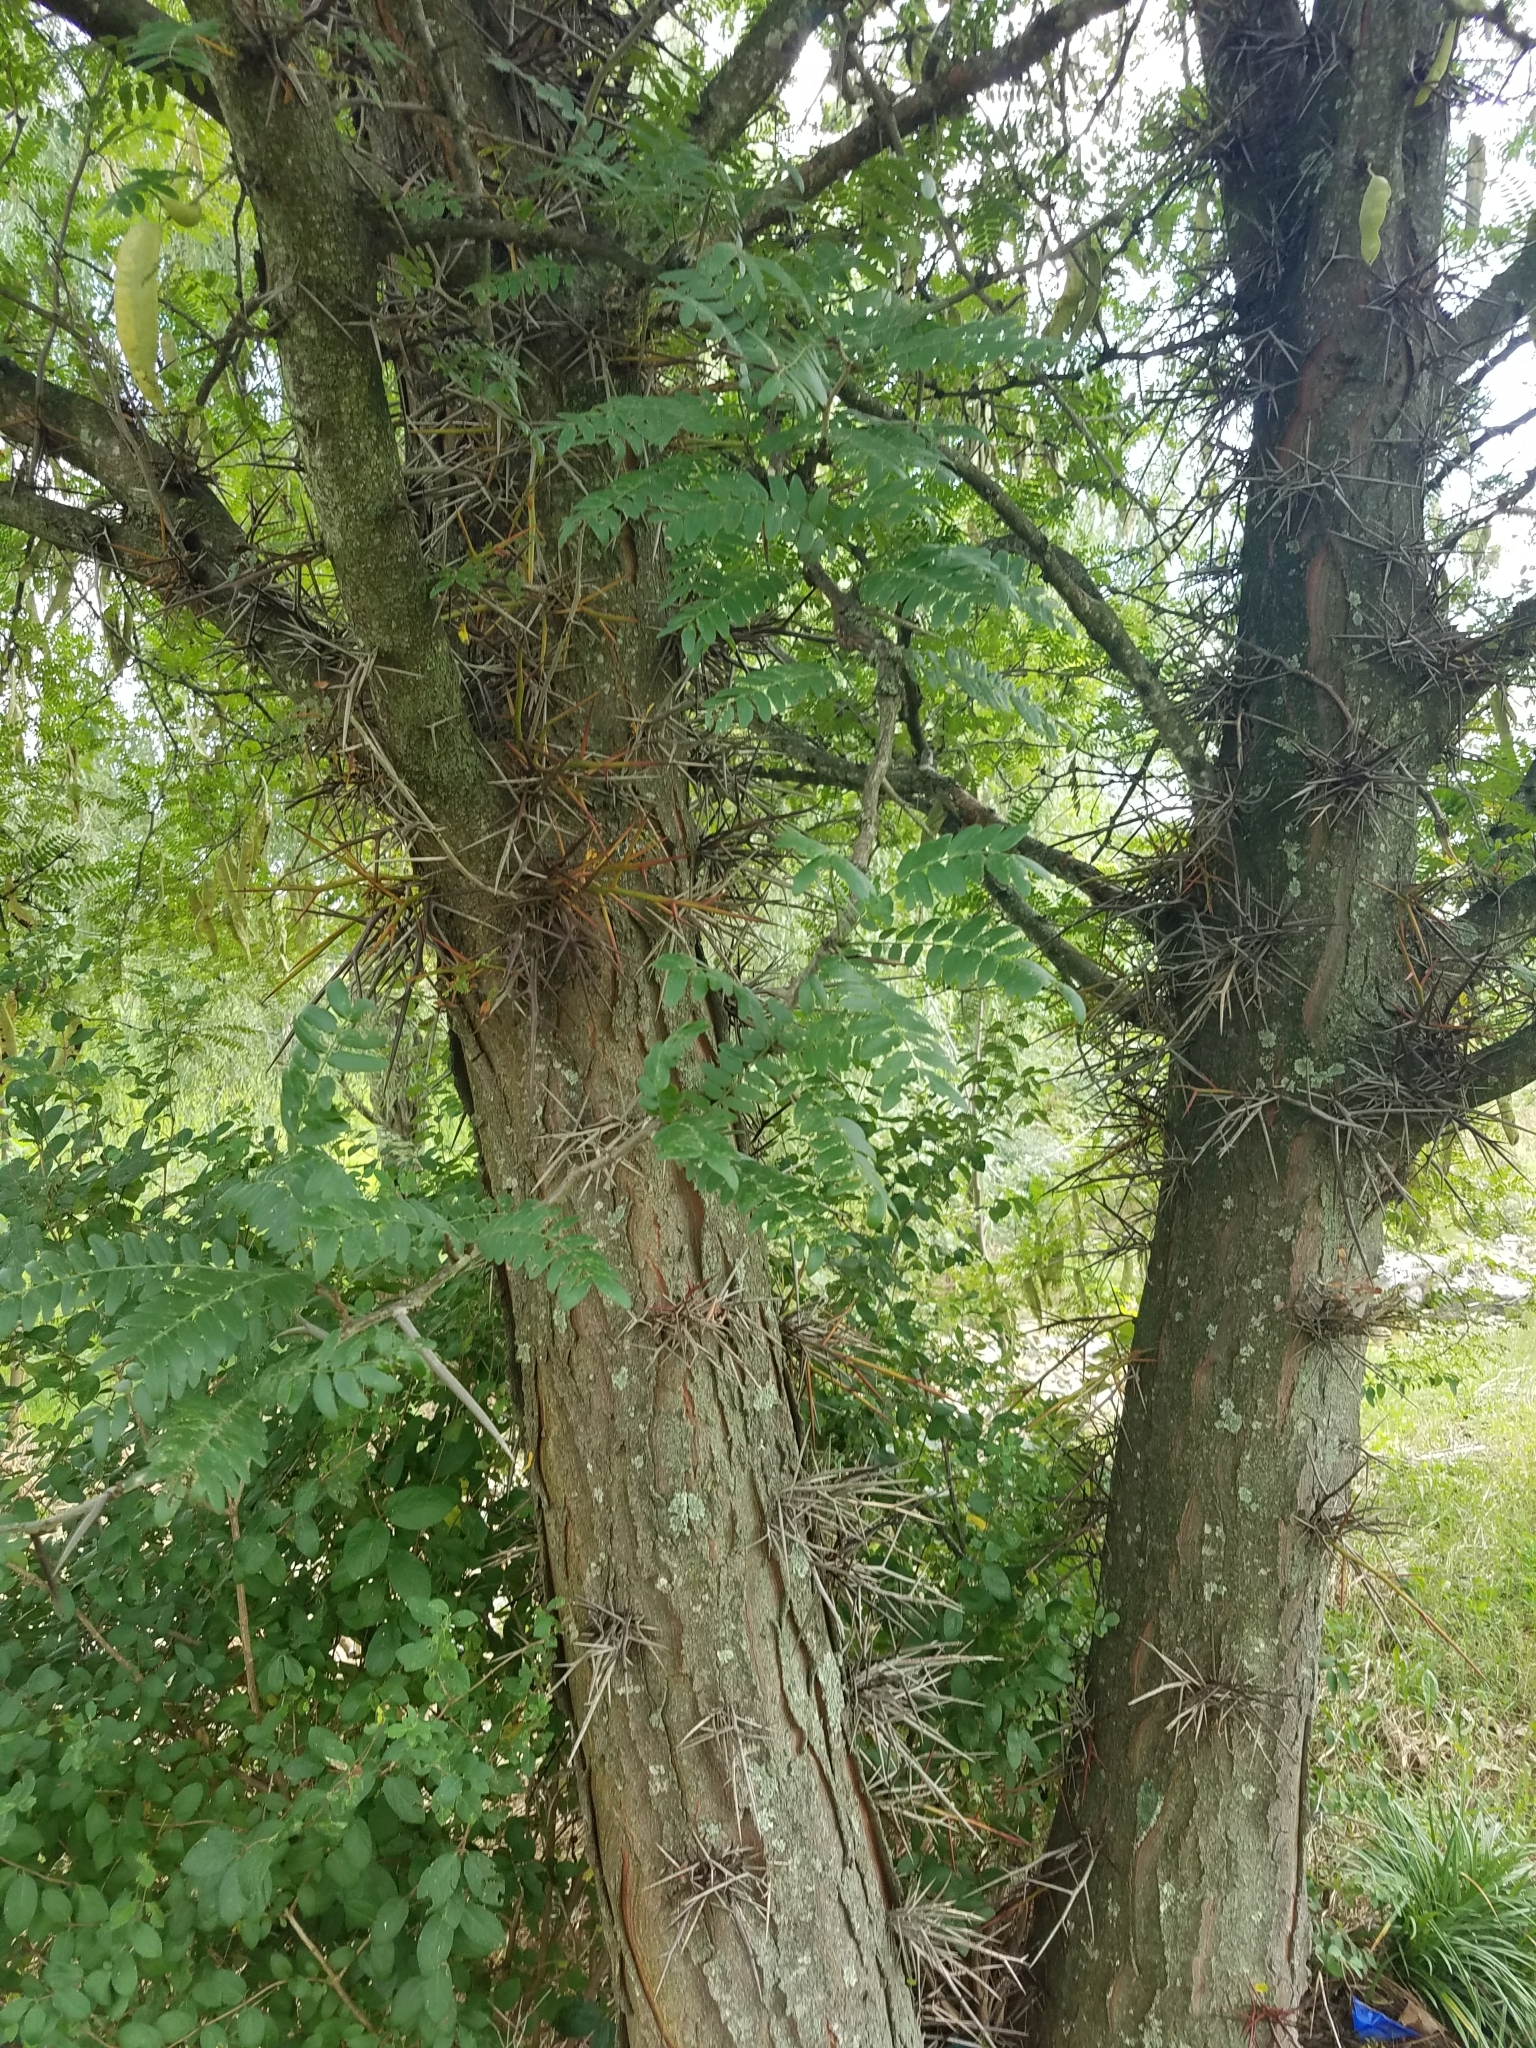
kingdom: Plantae
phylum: Tracheophyta
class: Magnoliopsida
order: Fabales
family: Fabaceae
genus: Gleditsia
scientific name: Gleditsia triacanthos
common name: Common honeylocust
